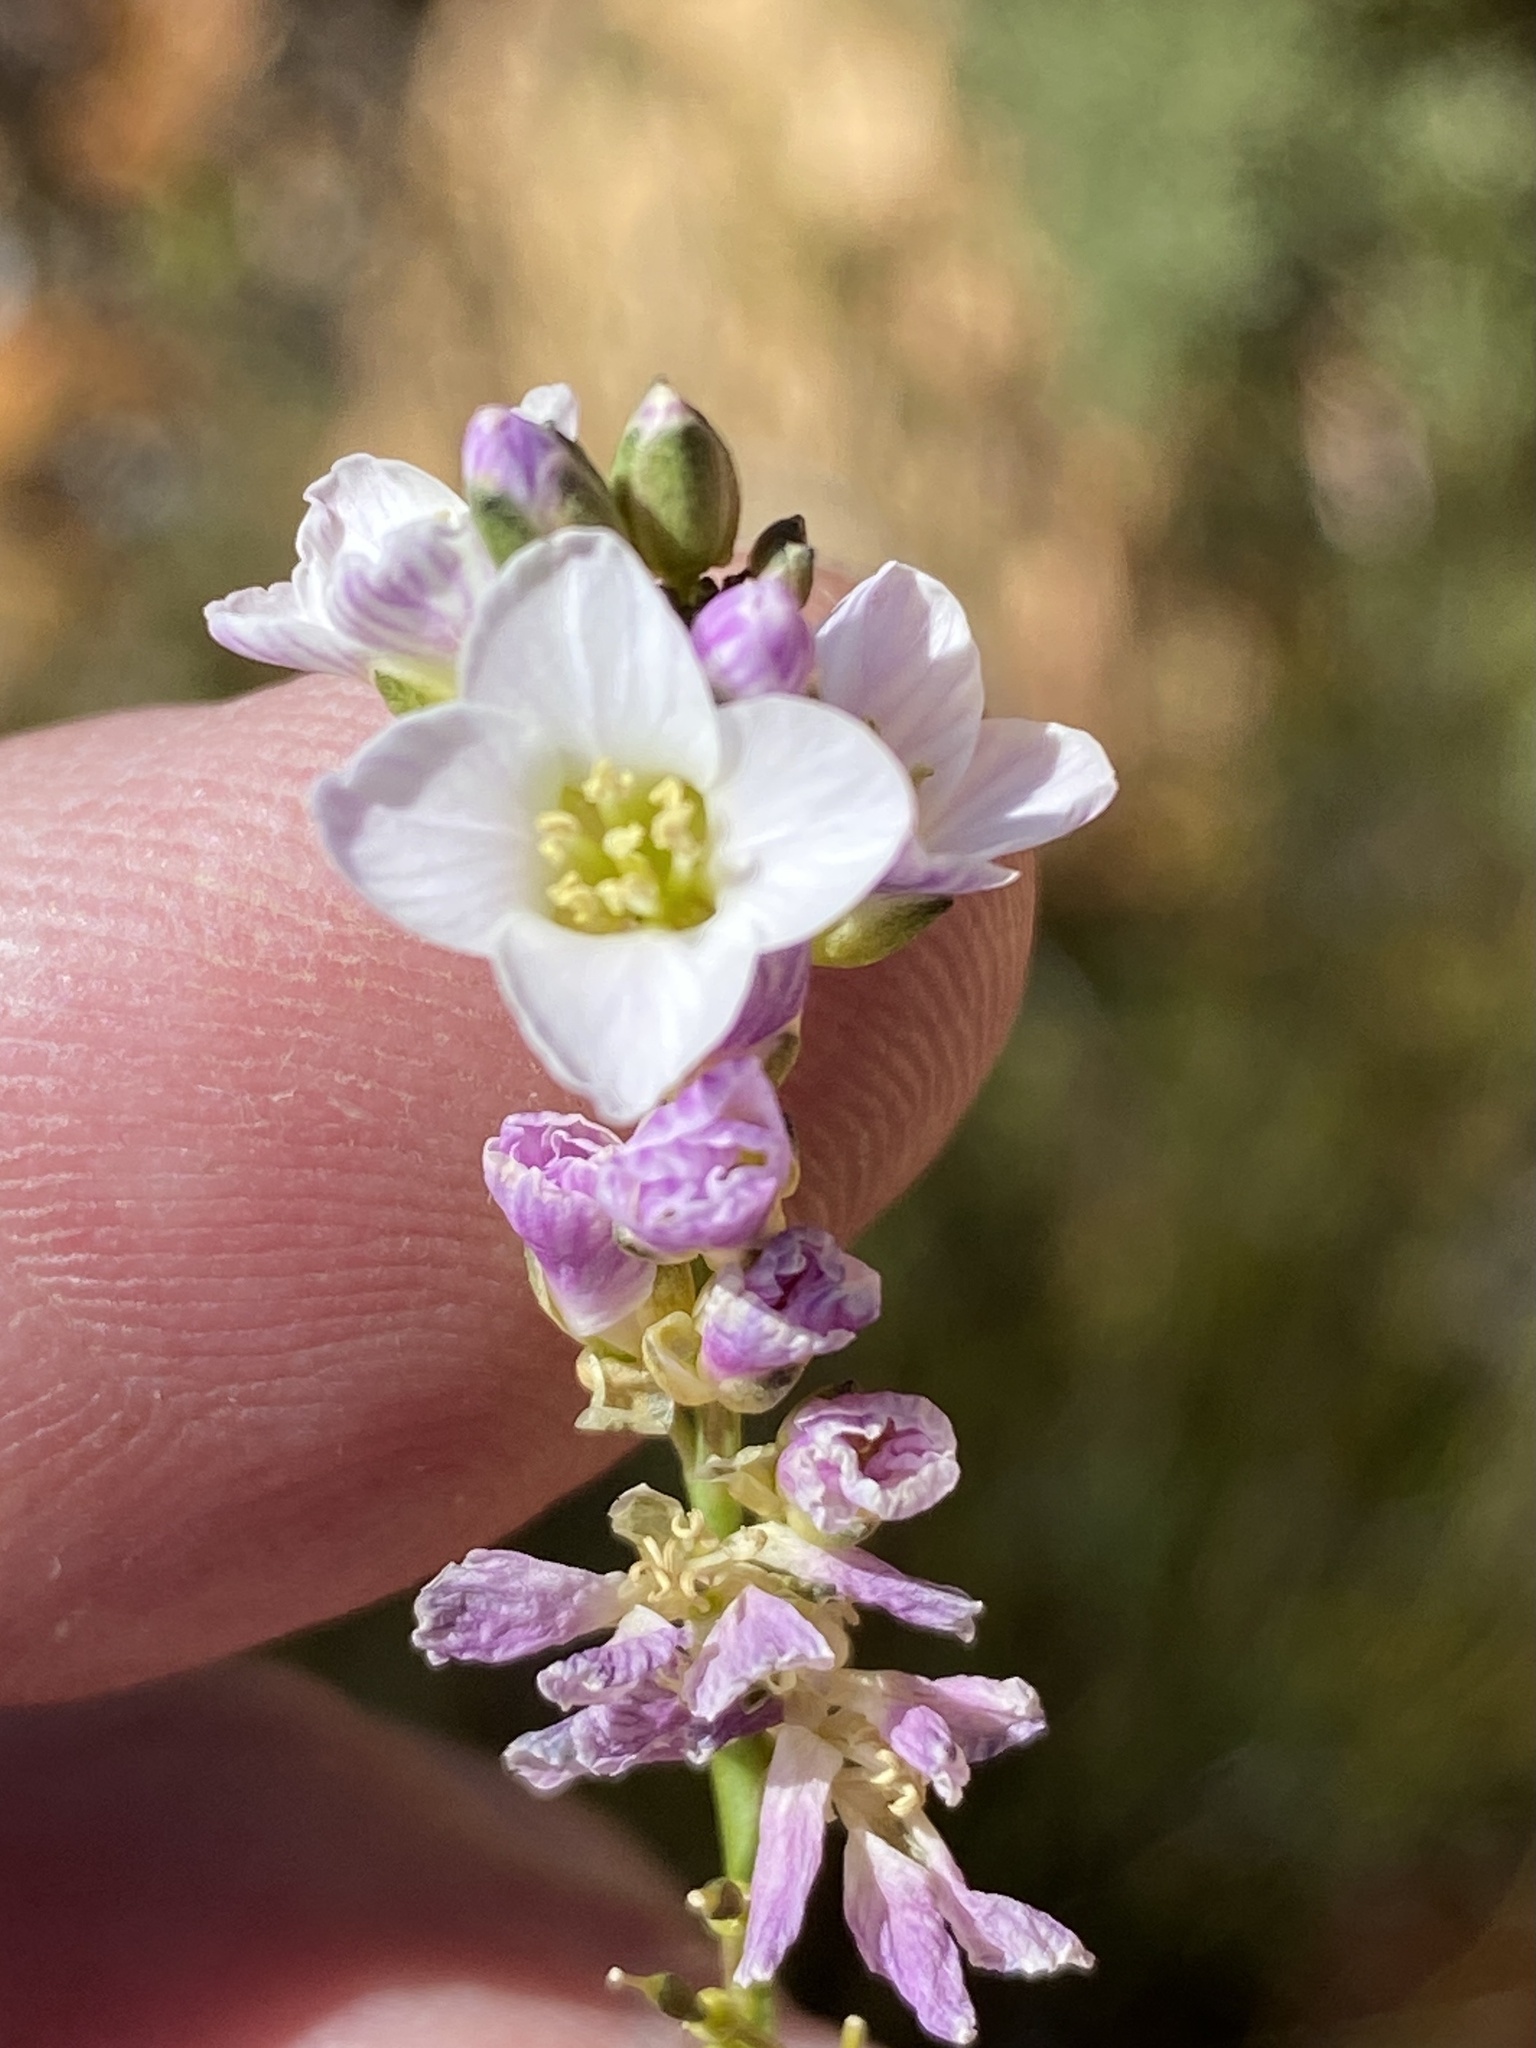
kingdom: Plantae
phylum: Tracheophyta
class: Magnoliopsida
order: Brassicales
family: Brassicaceae
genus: Heliophila
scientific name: Heliophila glauca
